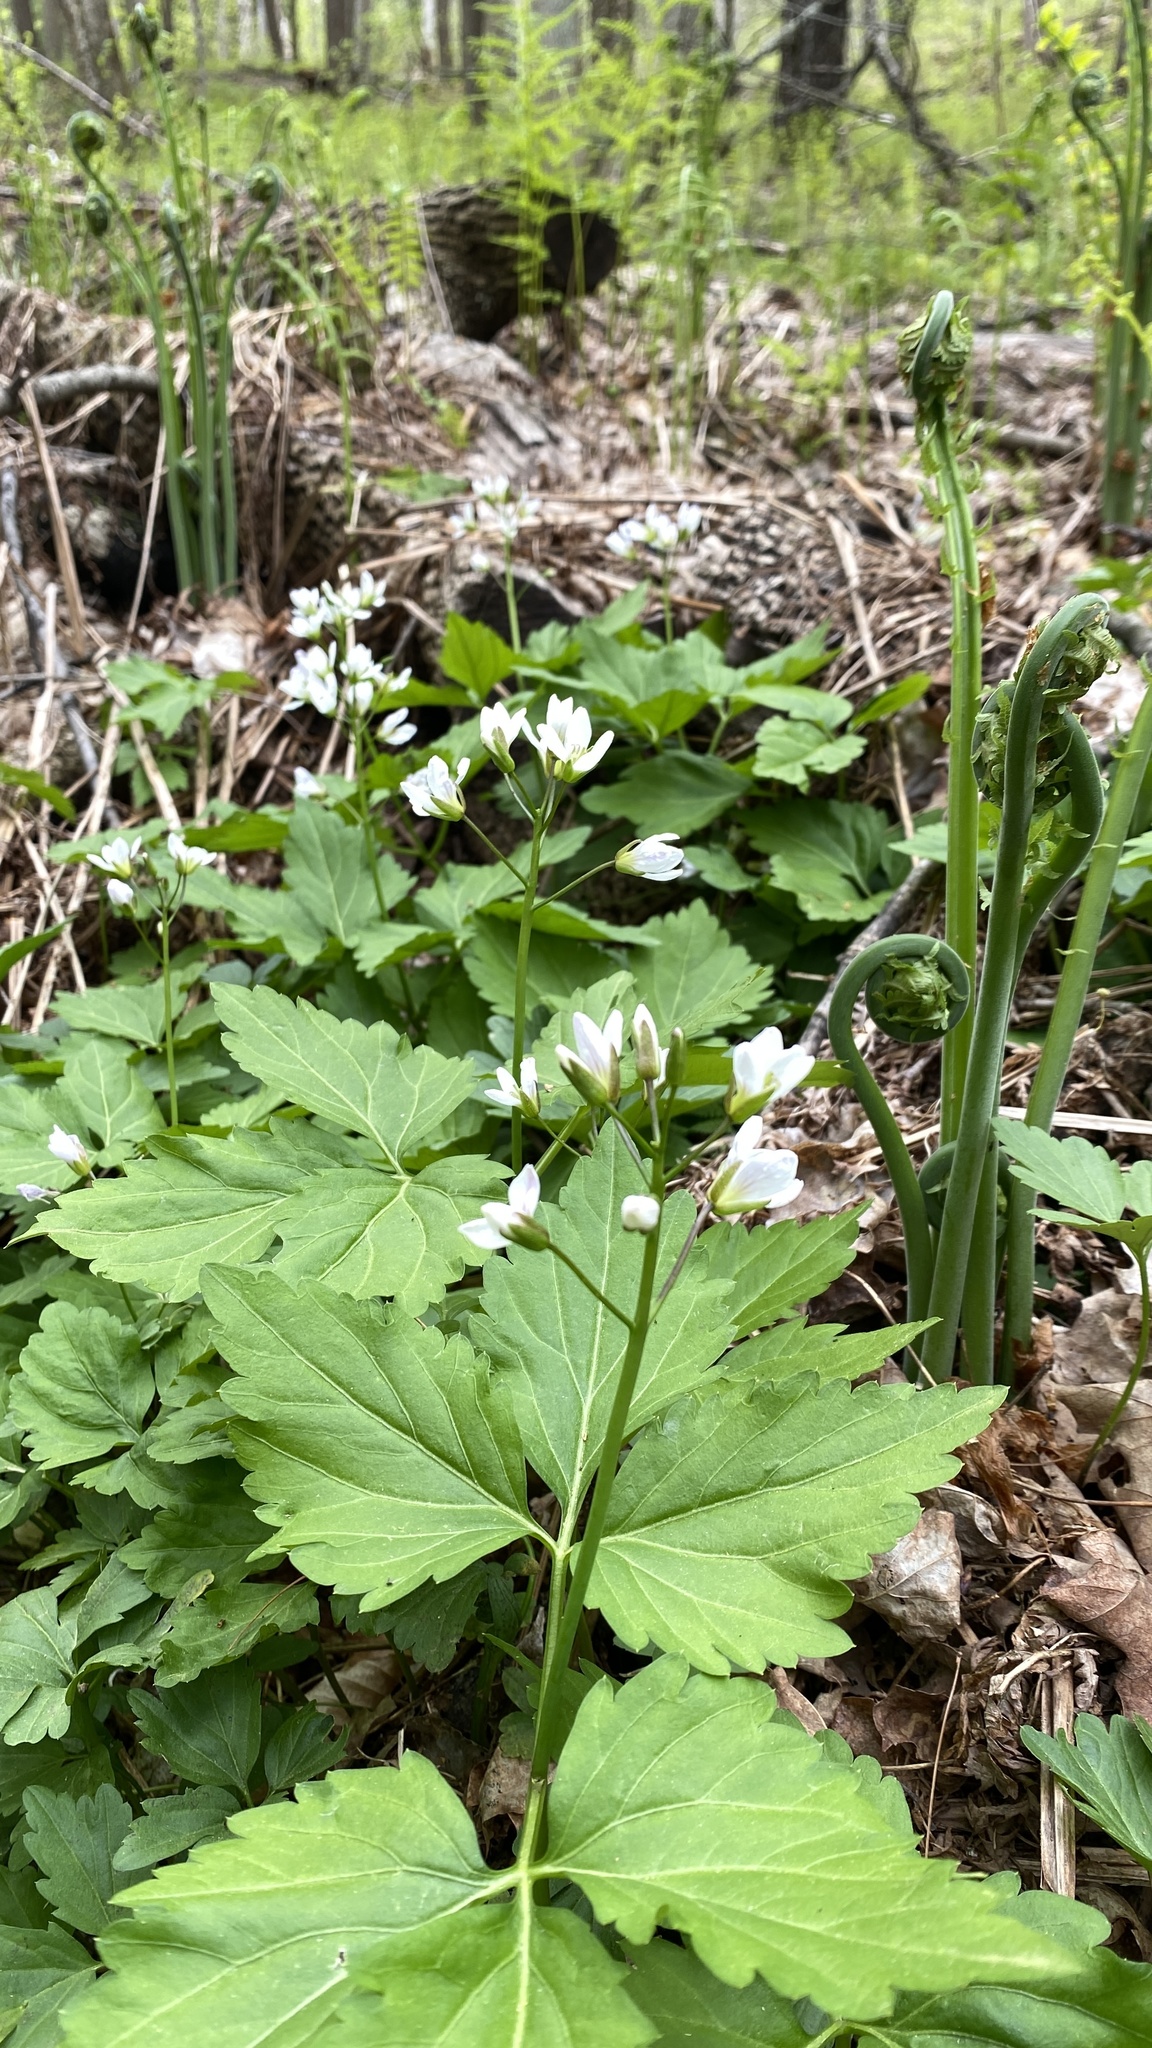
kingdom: Plantae
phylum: Tracheophyta
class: Magnoliopsida
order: Brassicales
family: Brassicaceae
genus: Cardamine
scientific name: Cardamine diphylla
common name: Broad-leaved toothwort
